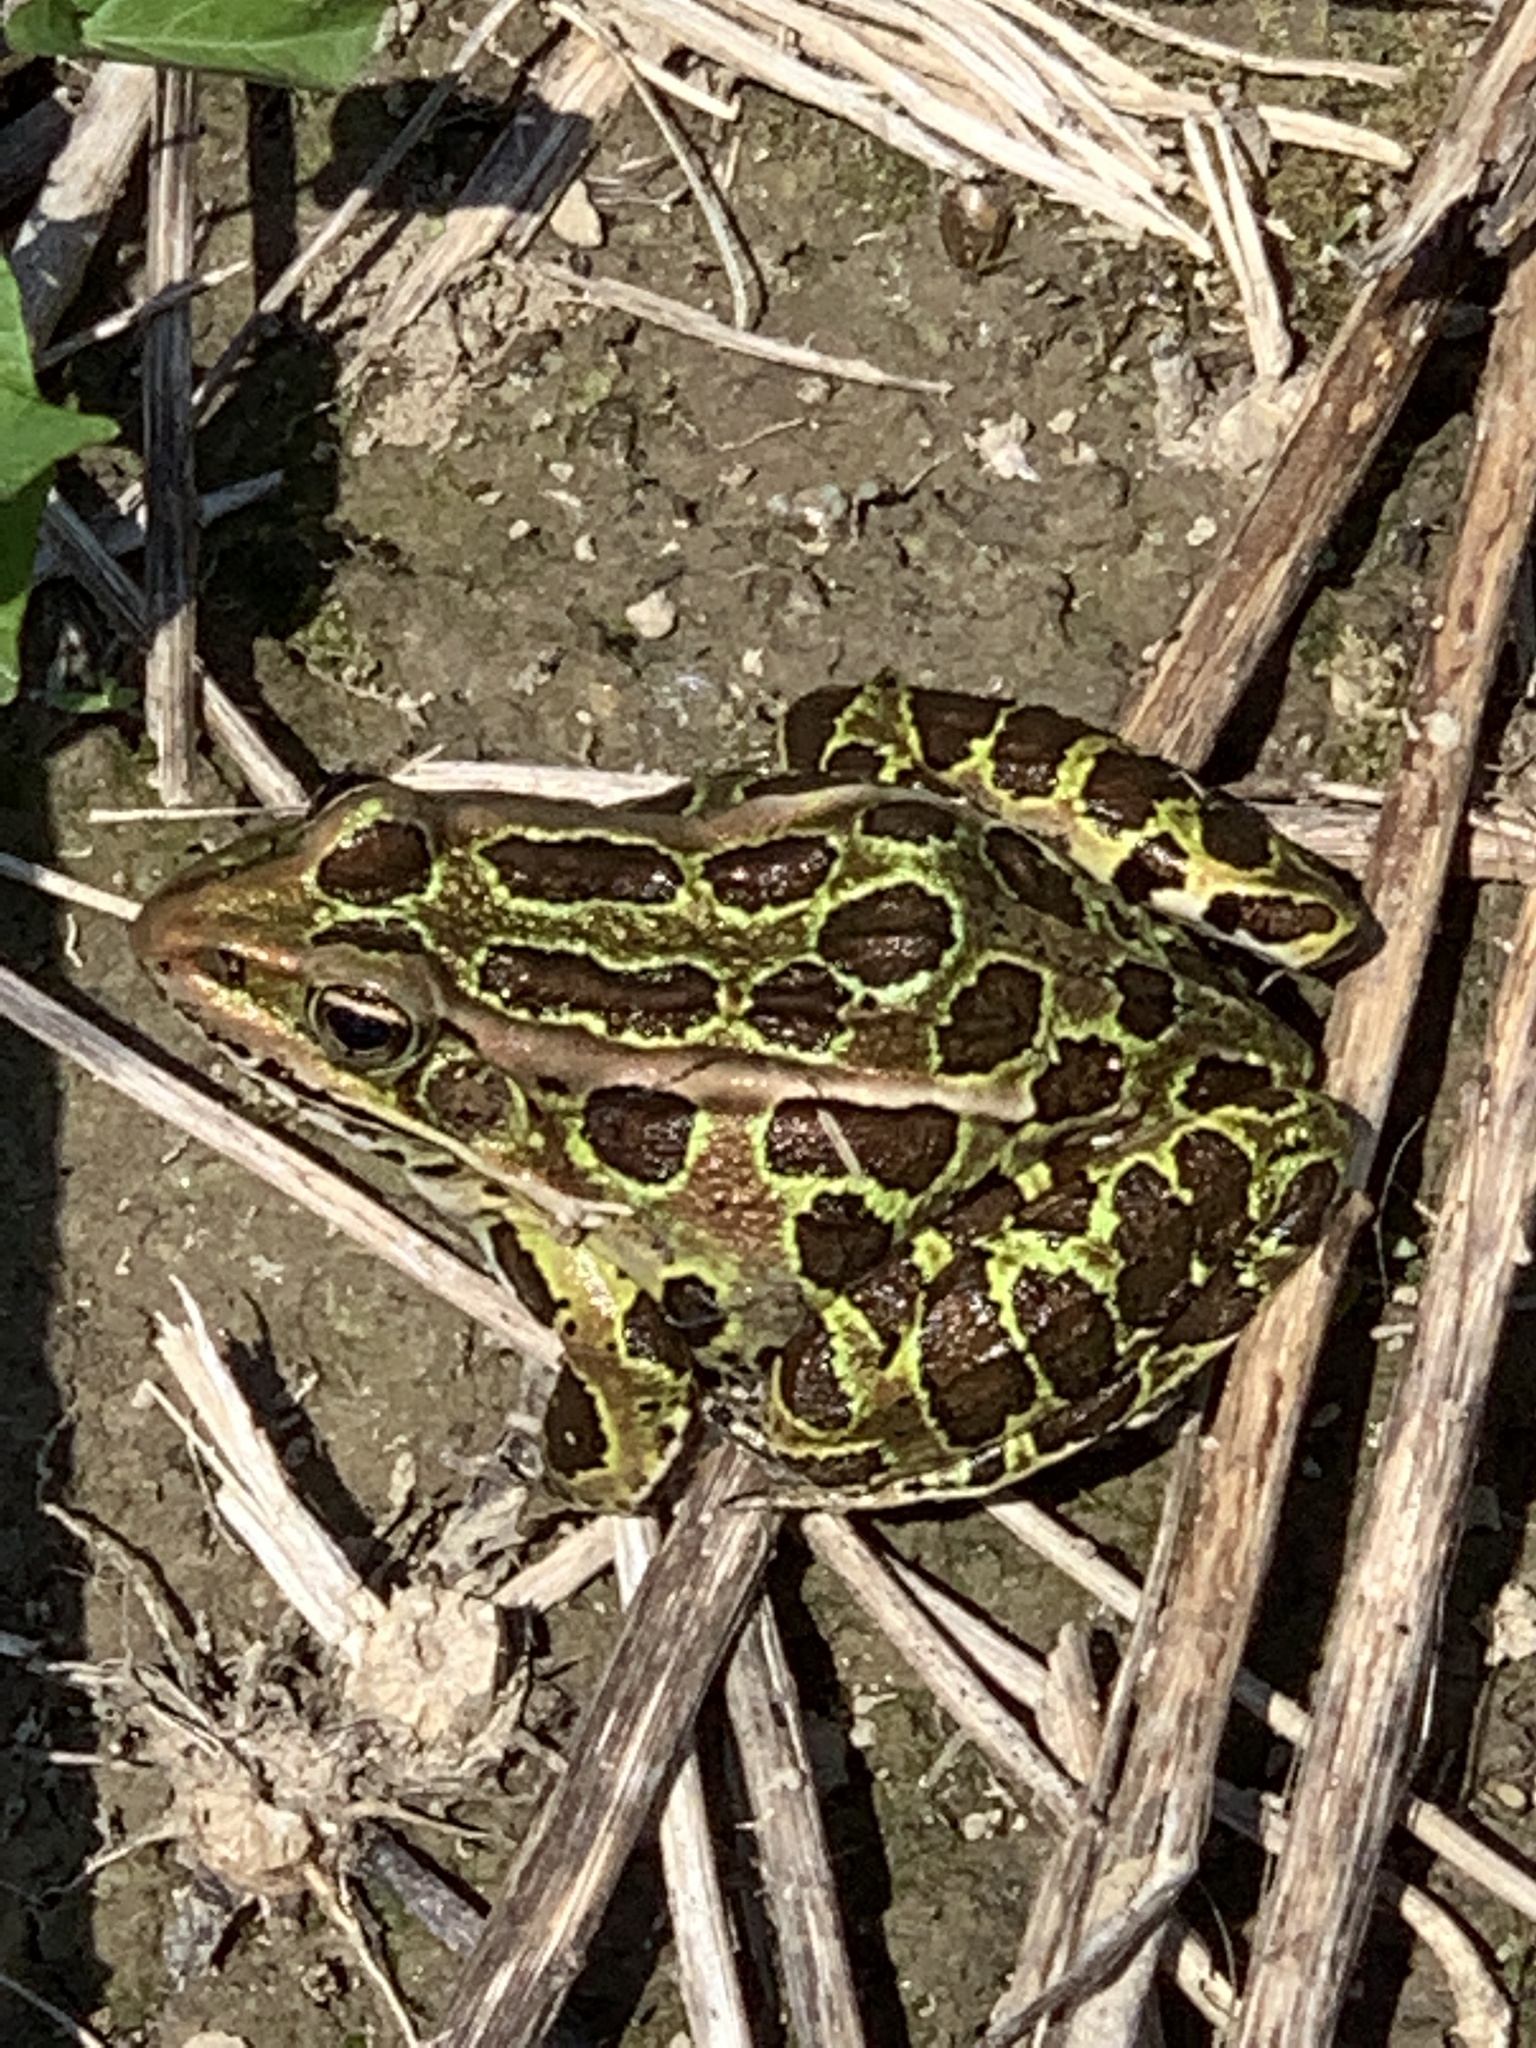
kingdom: Animalia
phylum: Chordata
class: Amphibia
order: Anura
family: Ranidae
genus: Lithobates
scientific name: Lithobates pipiens
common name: Northern leopard frog
